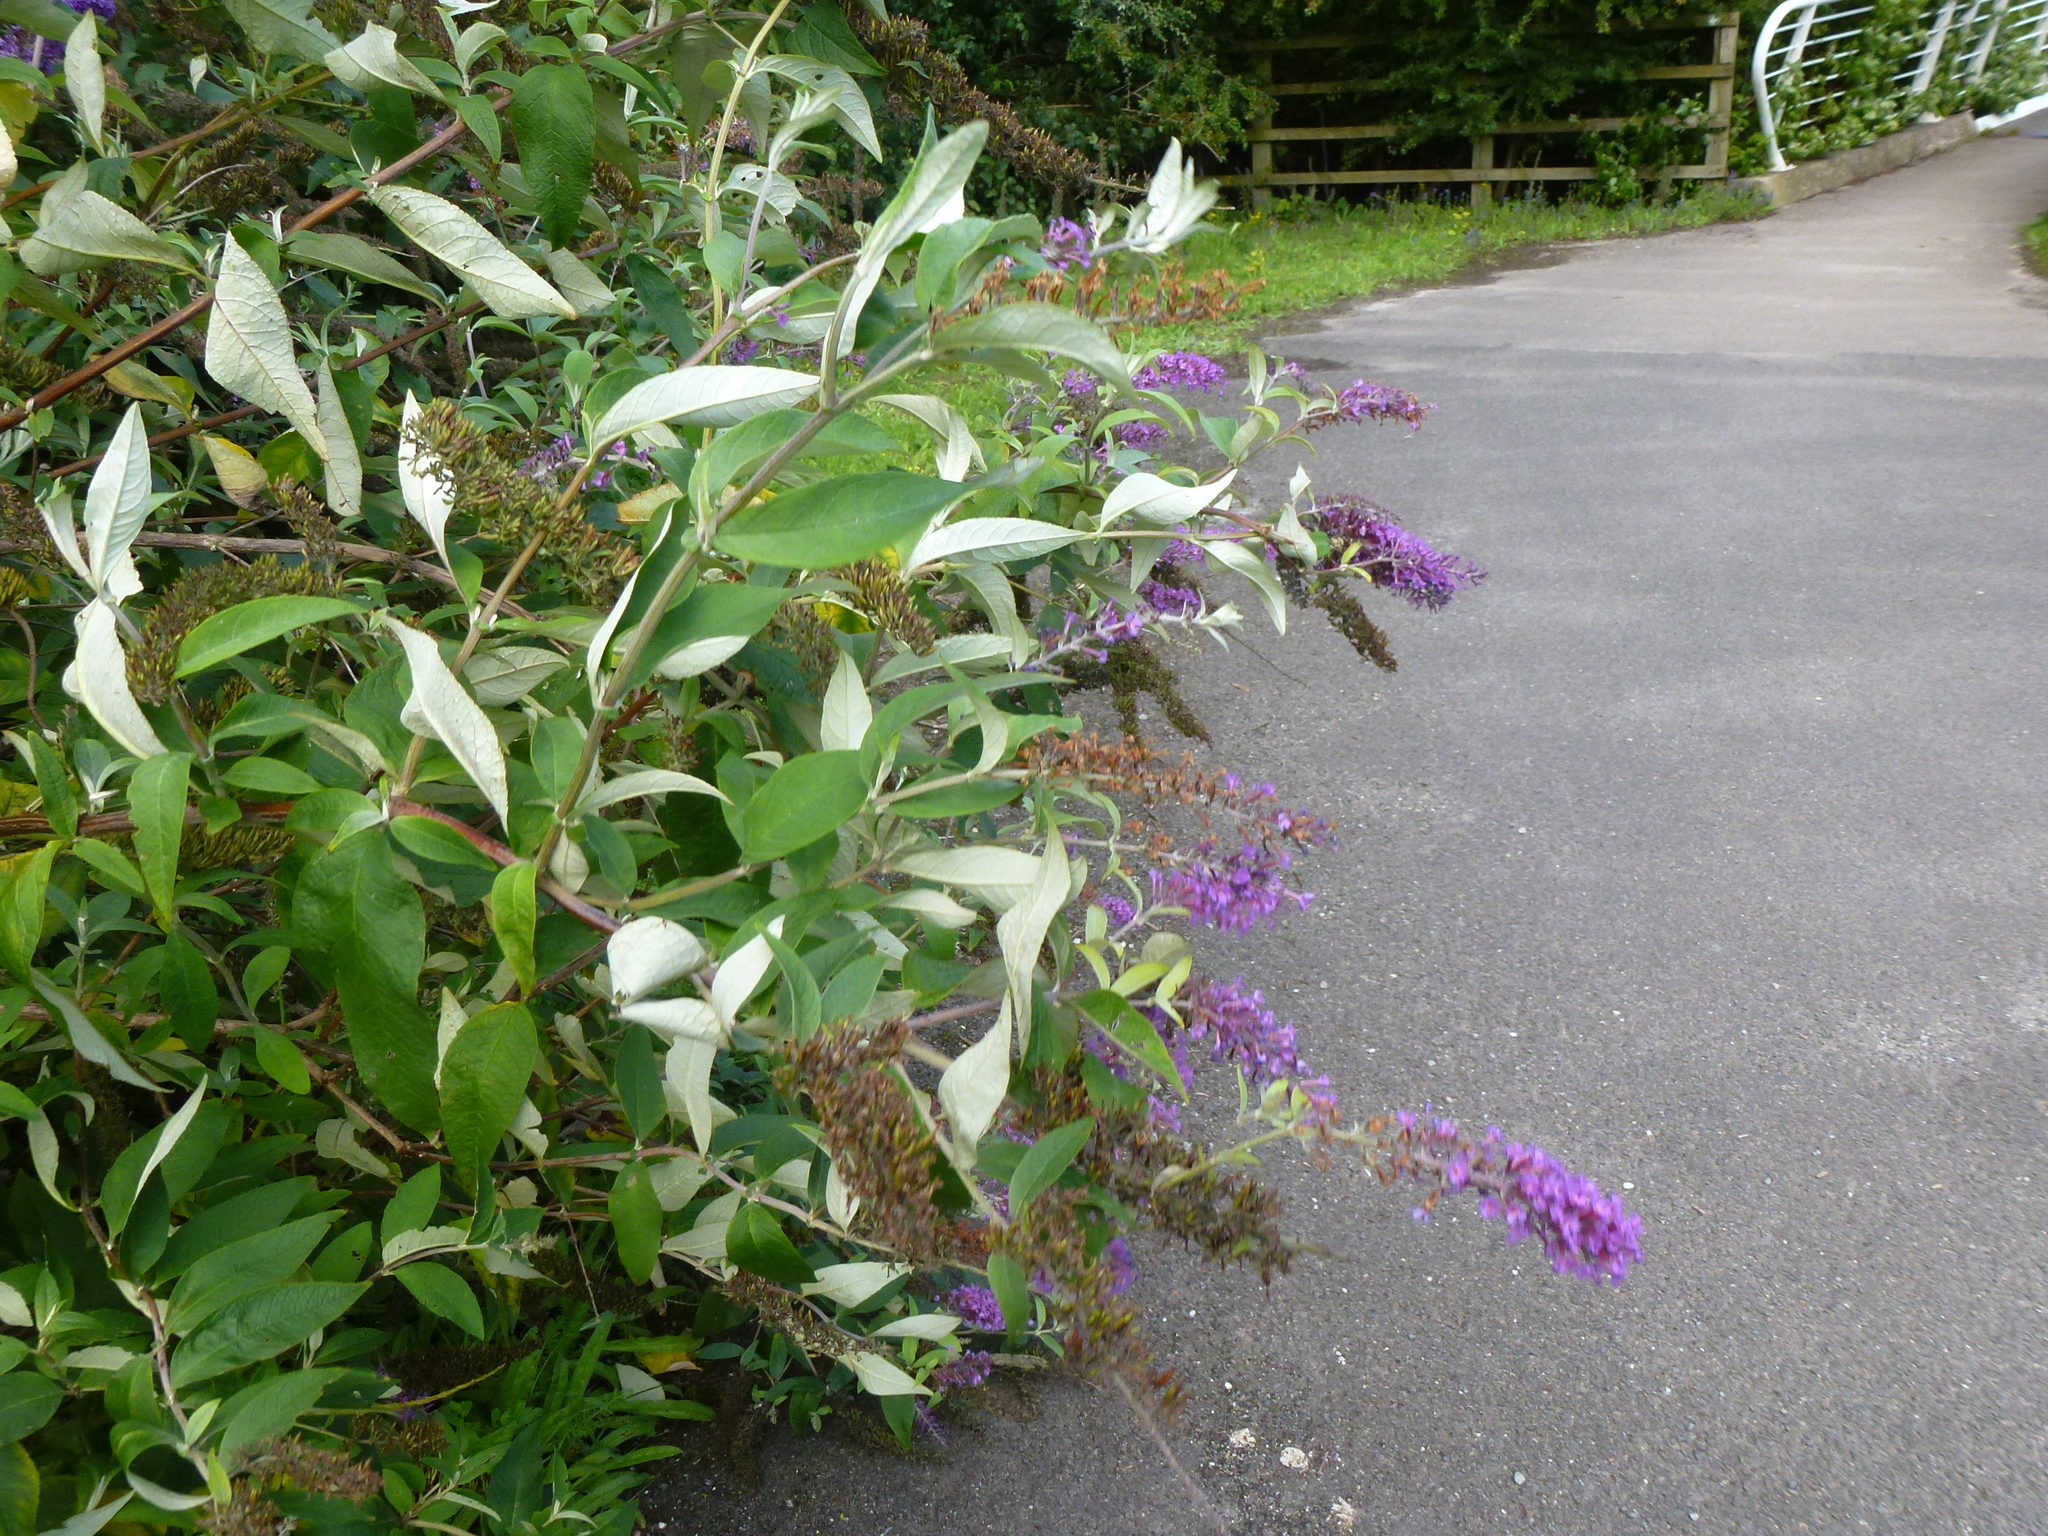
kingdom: Plantae
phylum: Tracheophyta
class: Magnoliopsida
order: Lamiales
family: Scrophulariaceae
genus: Buddleja
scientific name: Buddleja davidii
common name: Butterfly-bush
